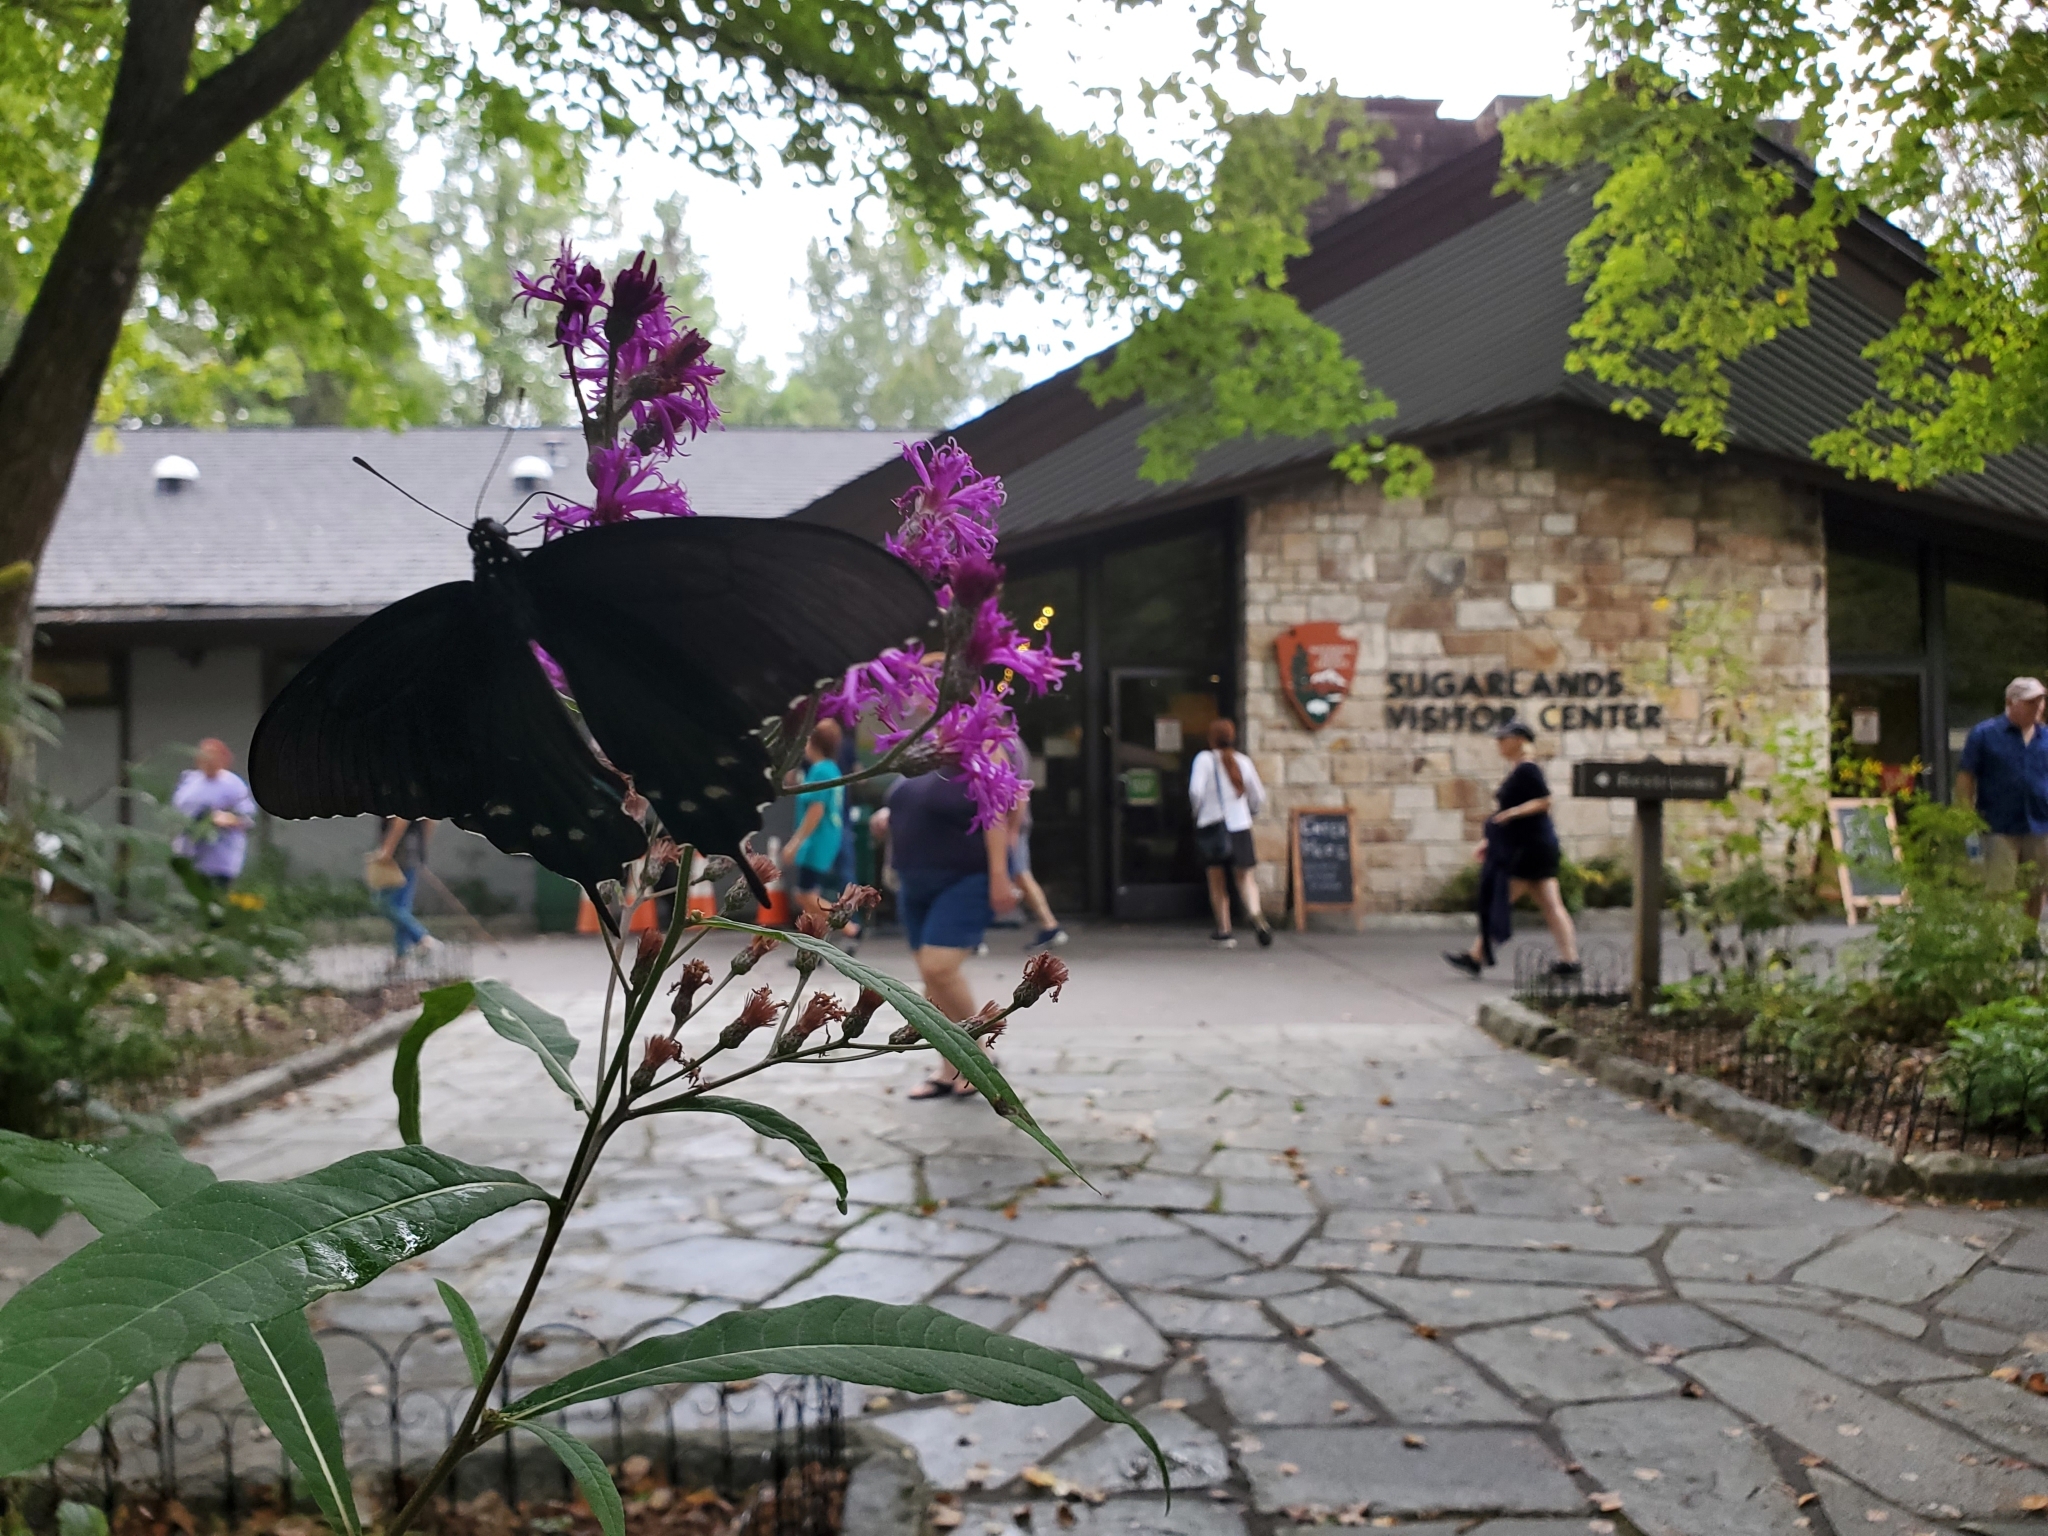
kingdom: Animalia
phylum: Arthropoda
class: Insecta
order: Lepidoptera
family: Papilionidae
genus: Battus
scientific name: Battus philenor
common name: Pipevine swallowtail
